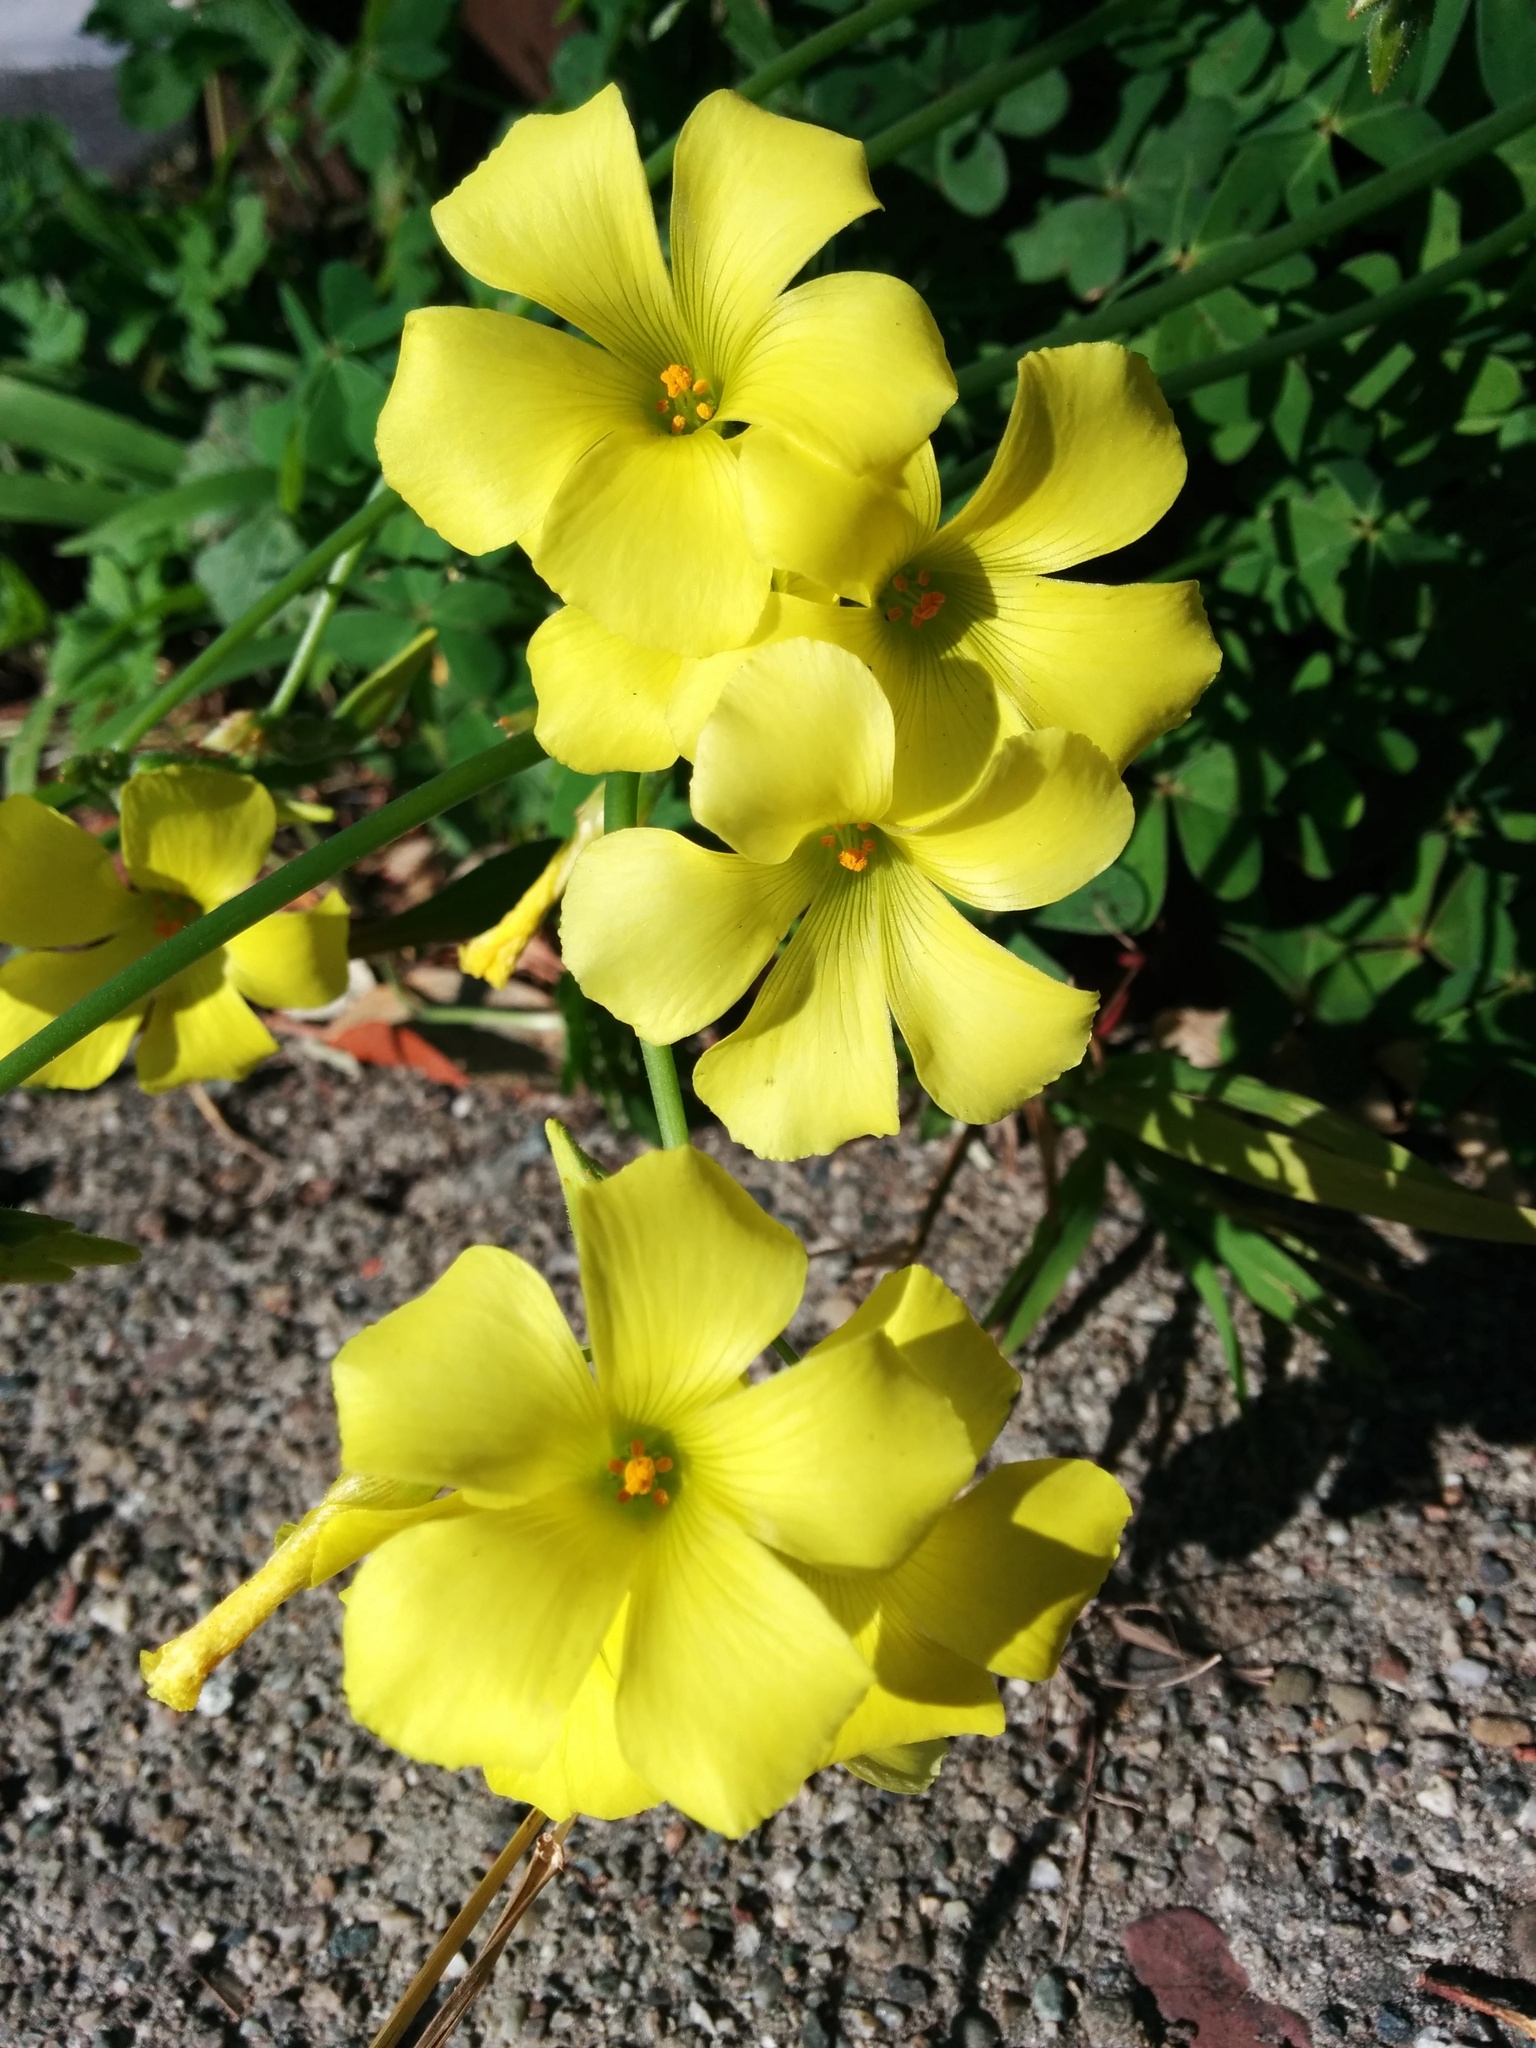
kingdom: Plantae
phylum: Tracheophyta
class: Magnoliopsida
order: Oxalidales
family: Oxalidaceae
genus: Oxalis
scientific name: Oxalis pes-caprae
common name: Bermuda-buttercup
